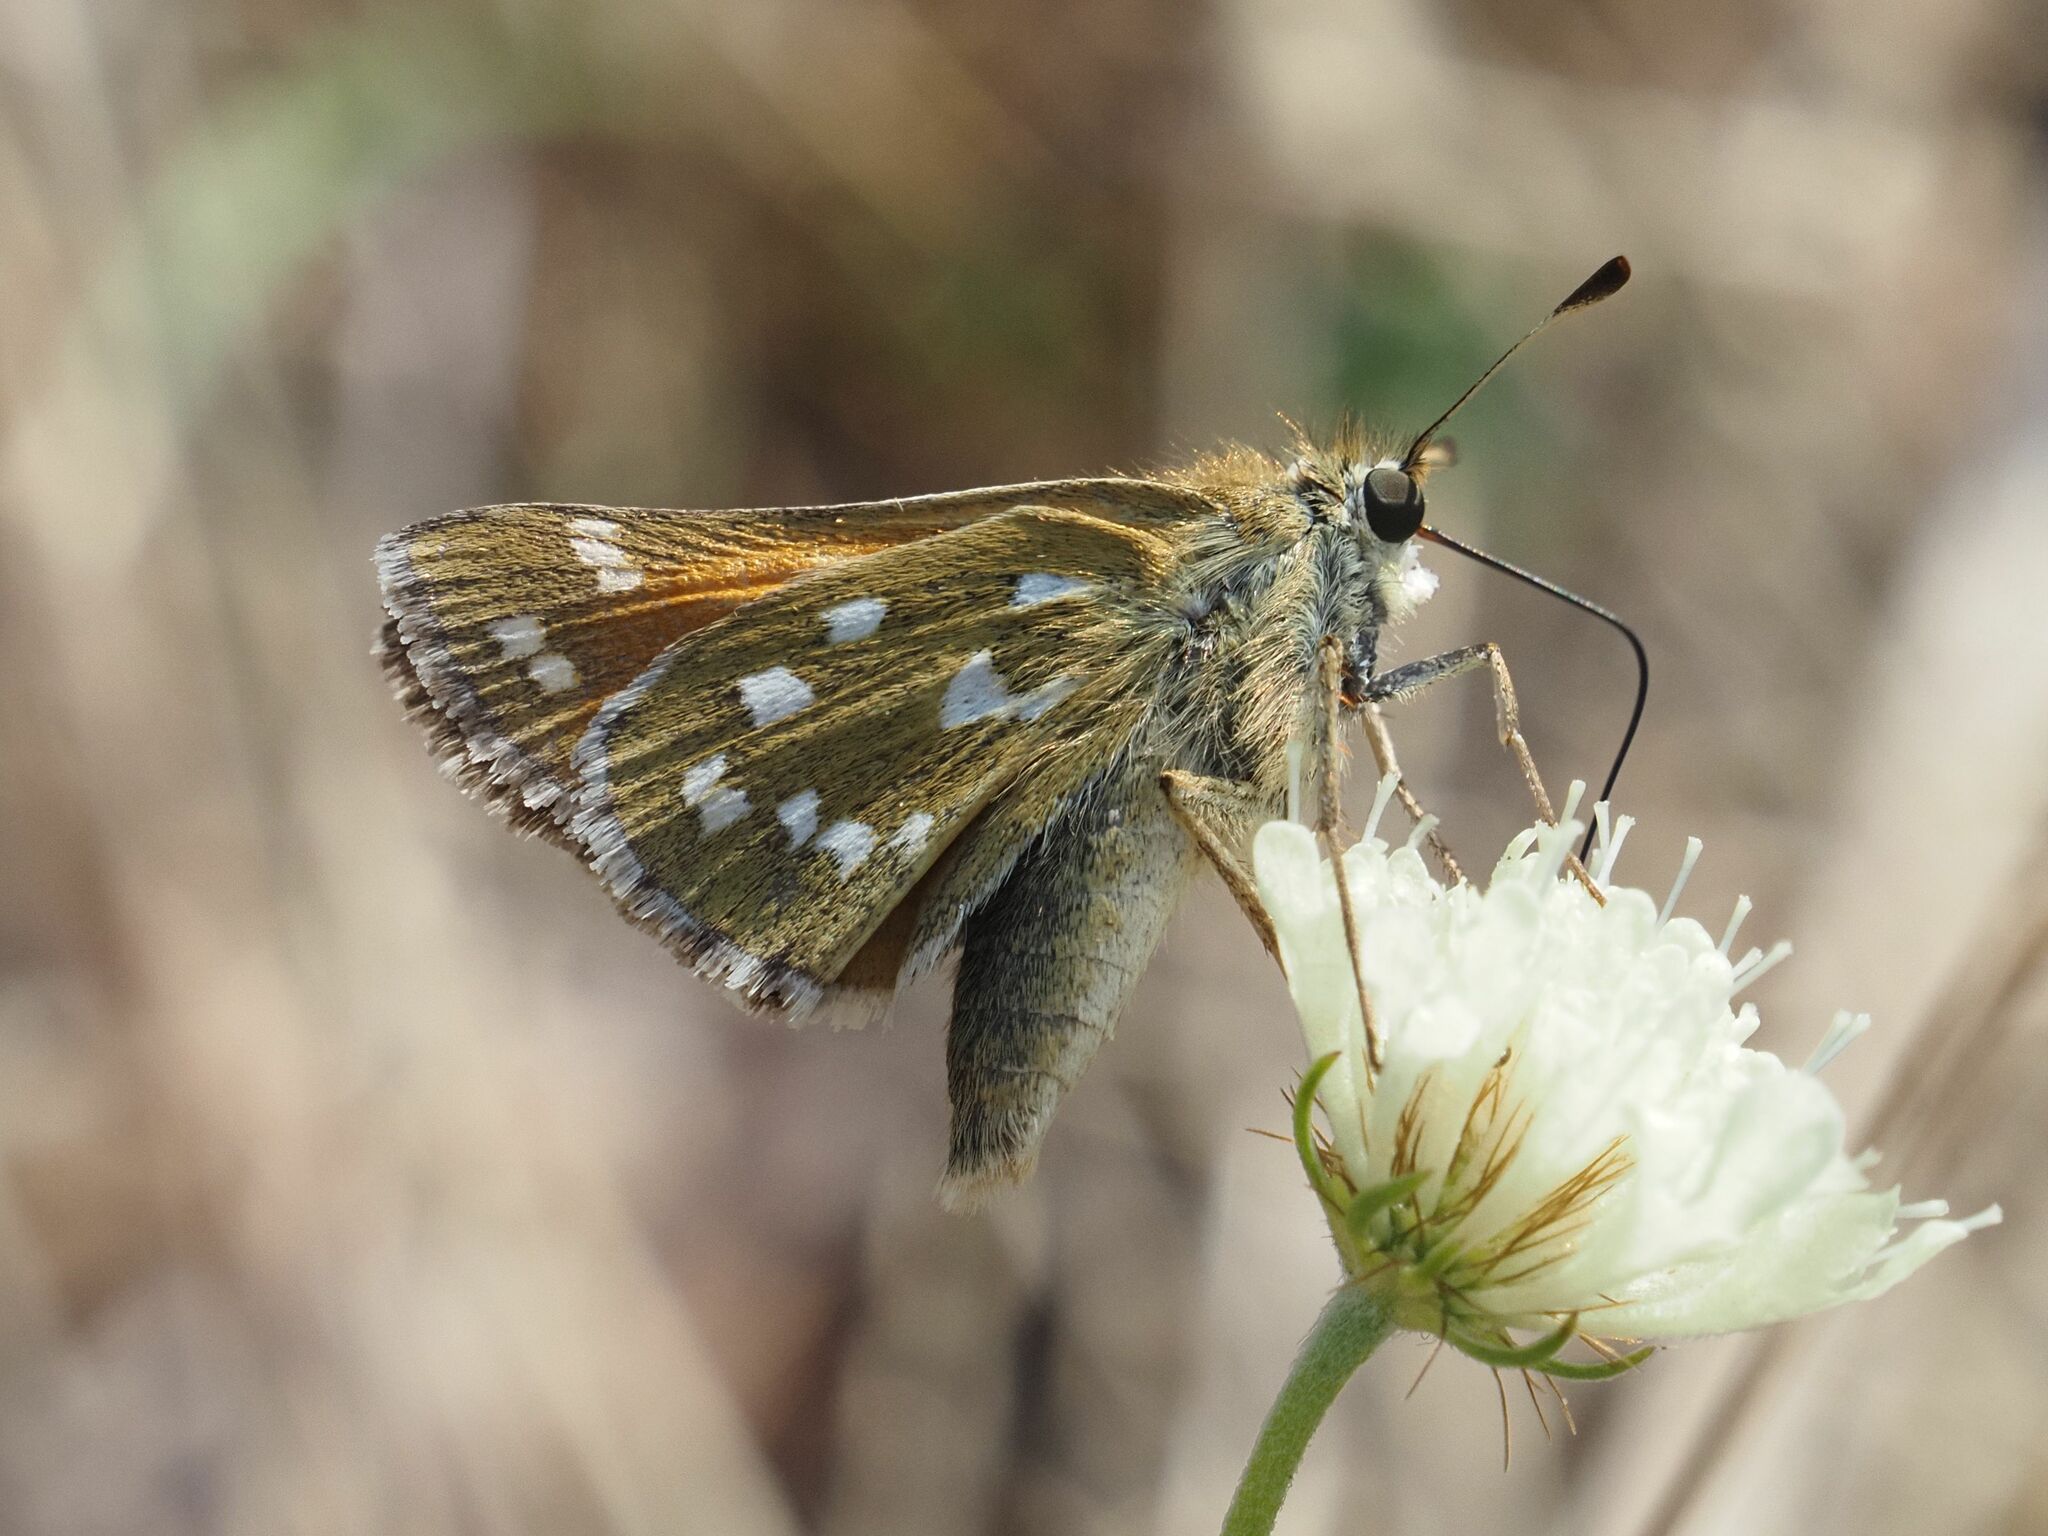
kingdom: Animalia
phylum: Arthropoda
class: Insecta
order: Lepidoptera
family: Hesperiidae
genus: Hesperia
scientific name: Hesperia comma
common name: Common branded skipper
